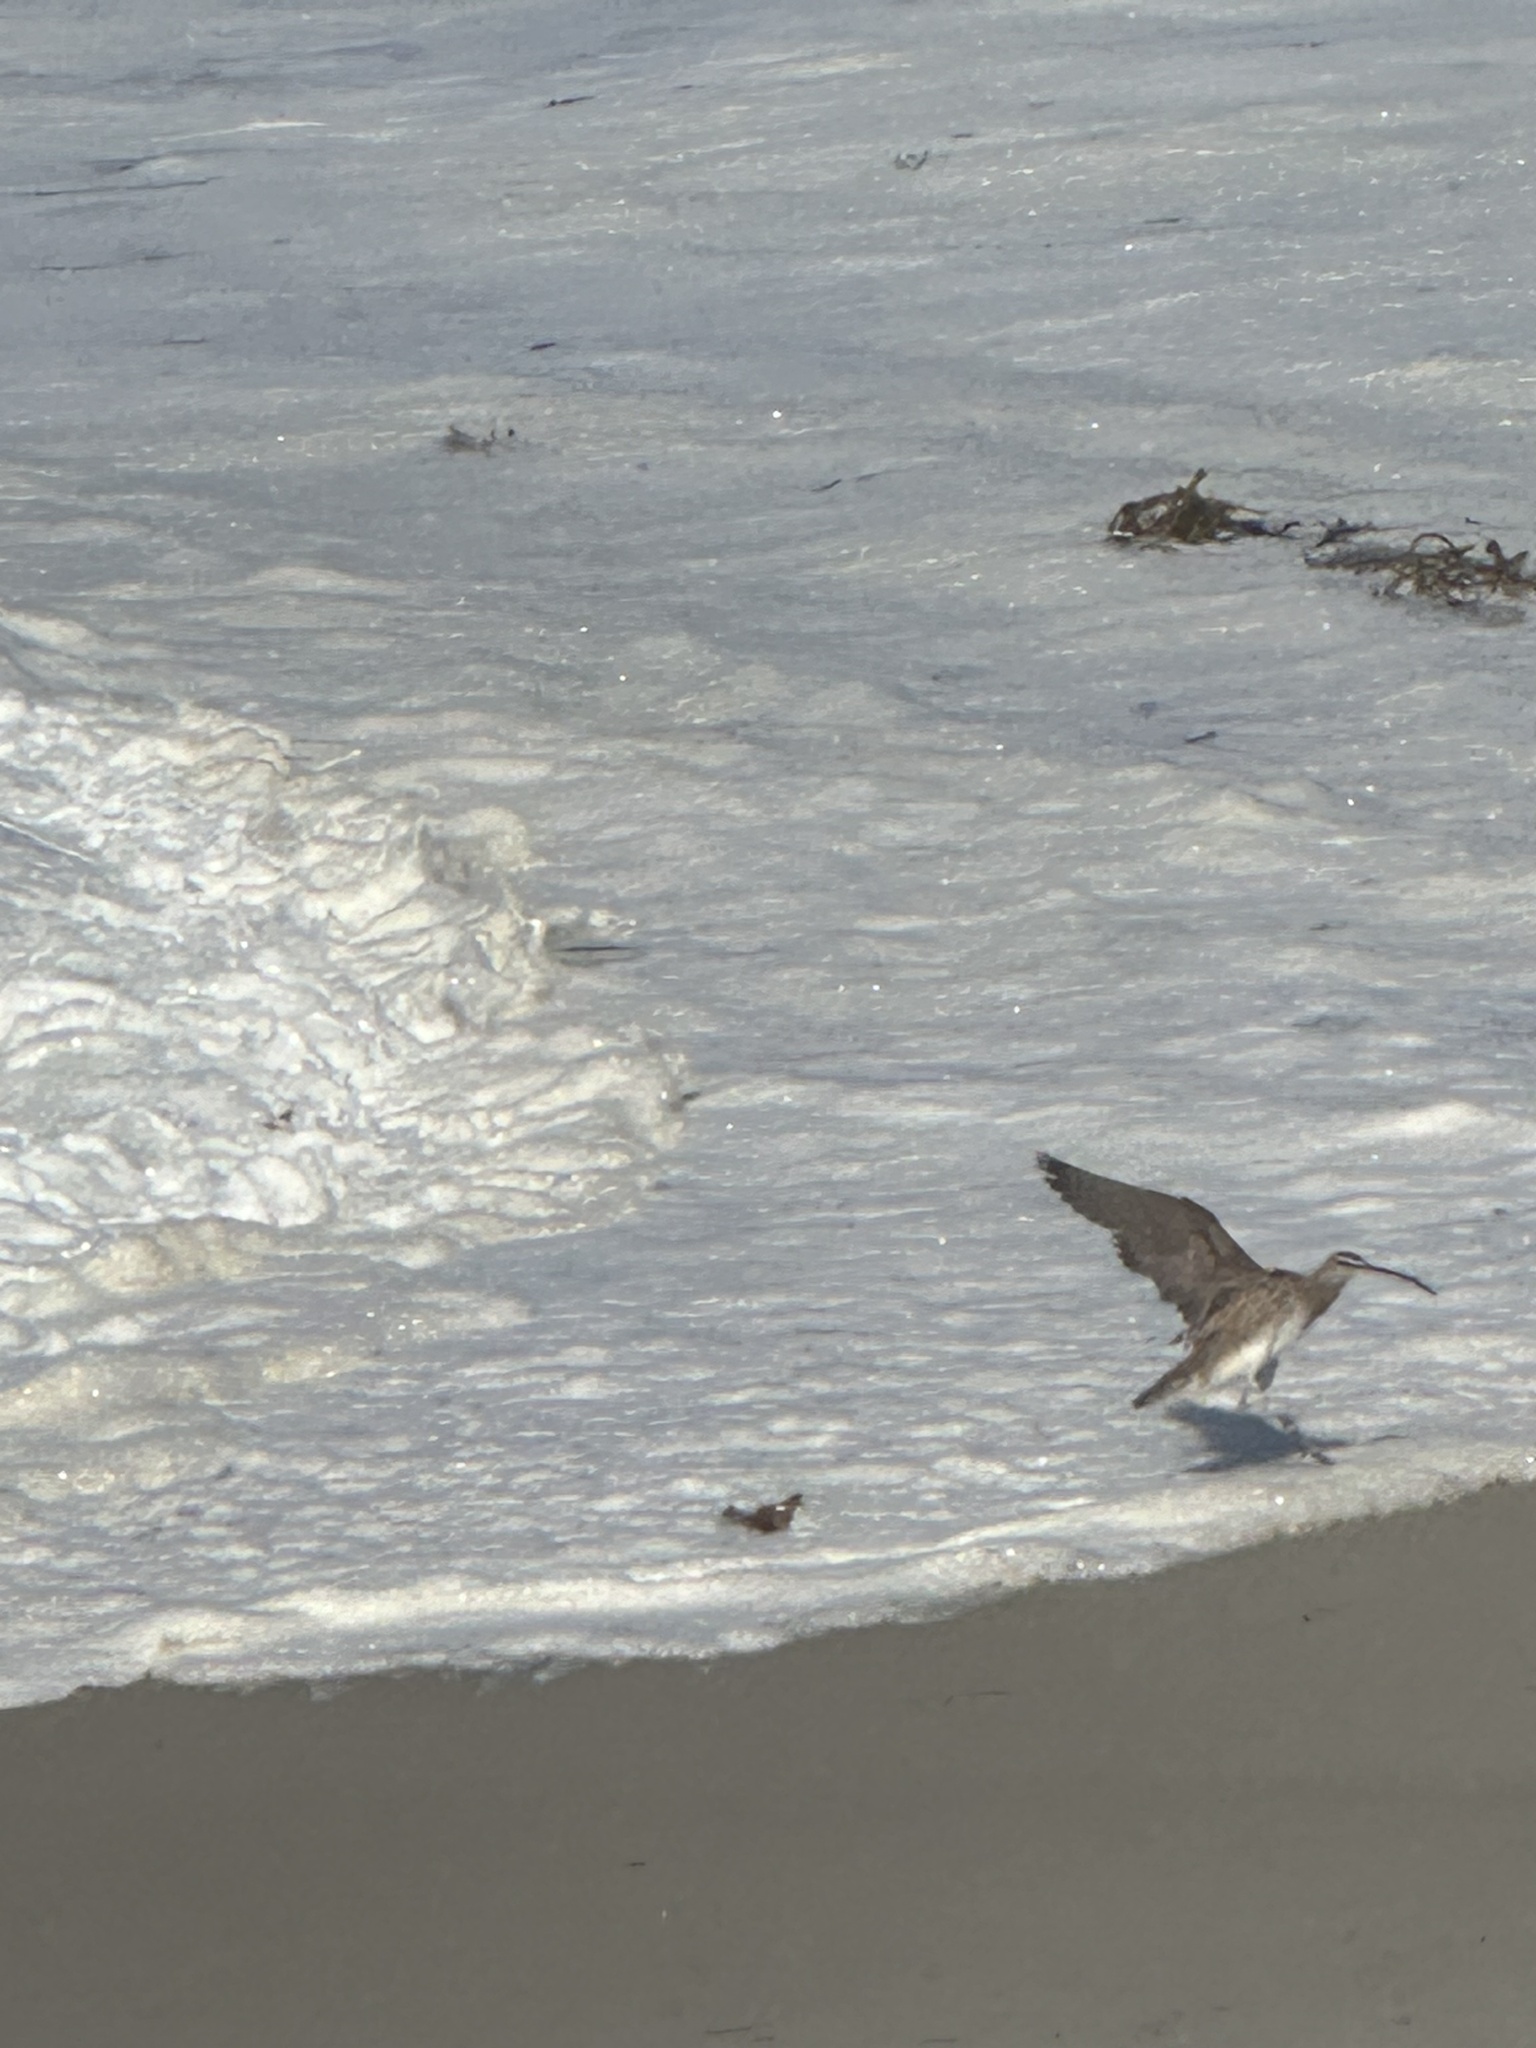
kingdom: Animalia
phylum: Chordata
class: Aves
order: Charadriiformes
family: Scolopacidae
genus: Numenius
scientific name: Numenius phaeopus
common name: Whimbrel
